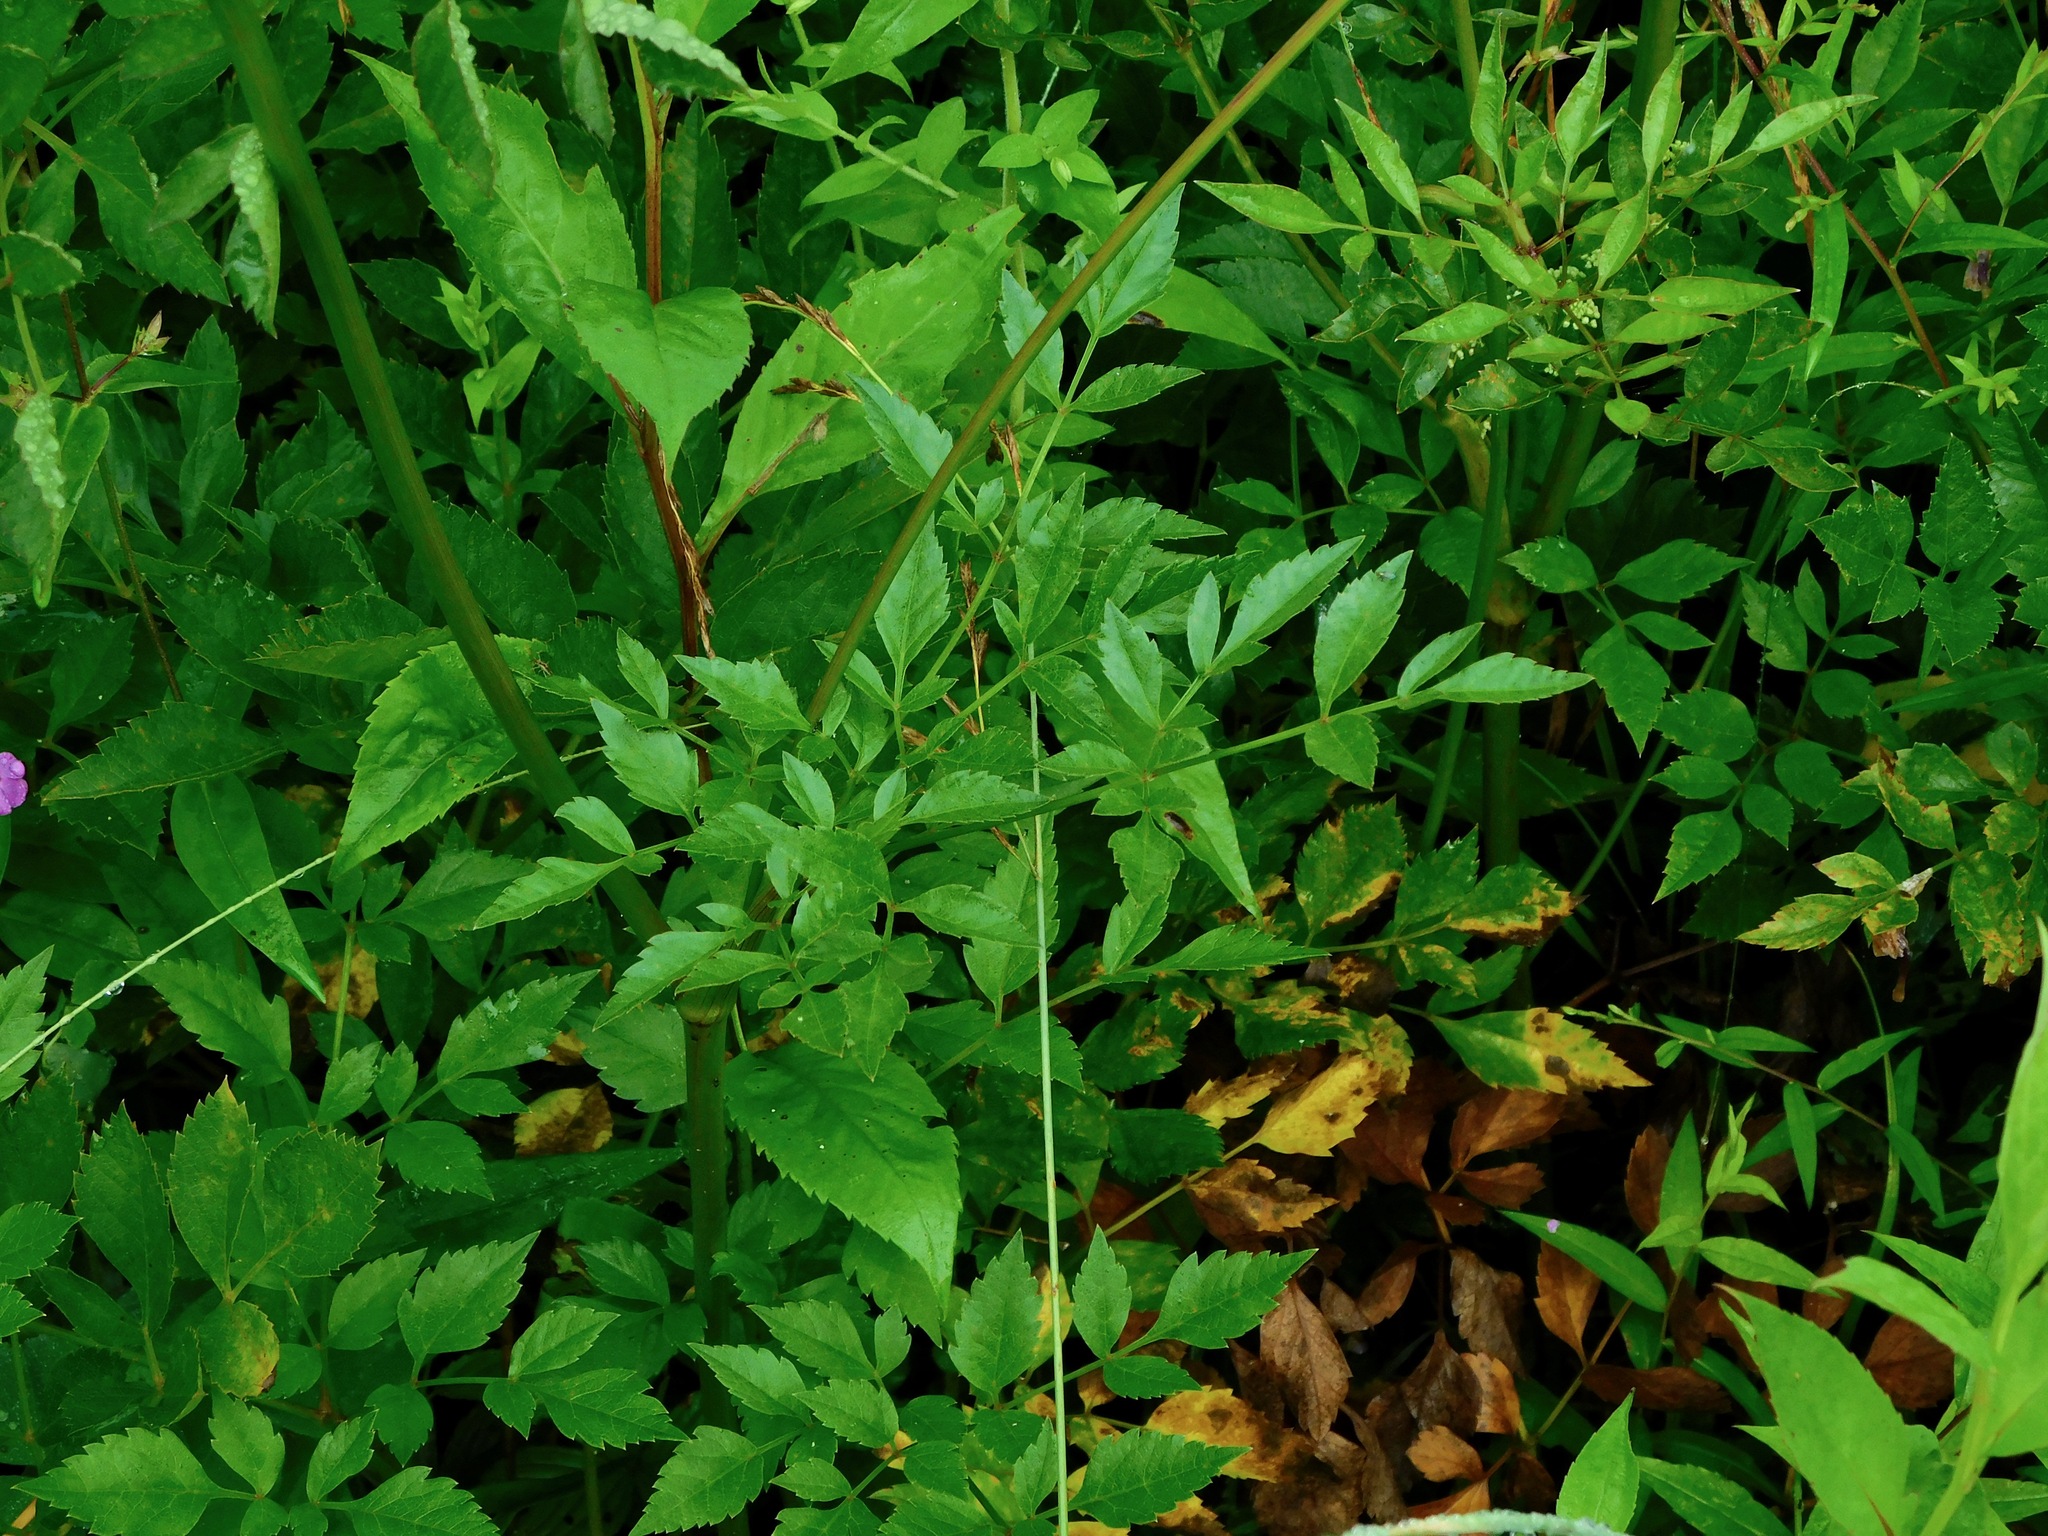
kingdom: Plantae
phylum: Tracheophyta
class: Magnoliopsida
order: Apiales
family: Apiaceae
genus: Cicuta
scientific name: Cicuta maculata
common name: Spotted cowbane
